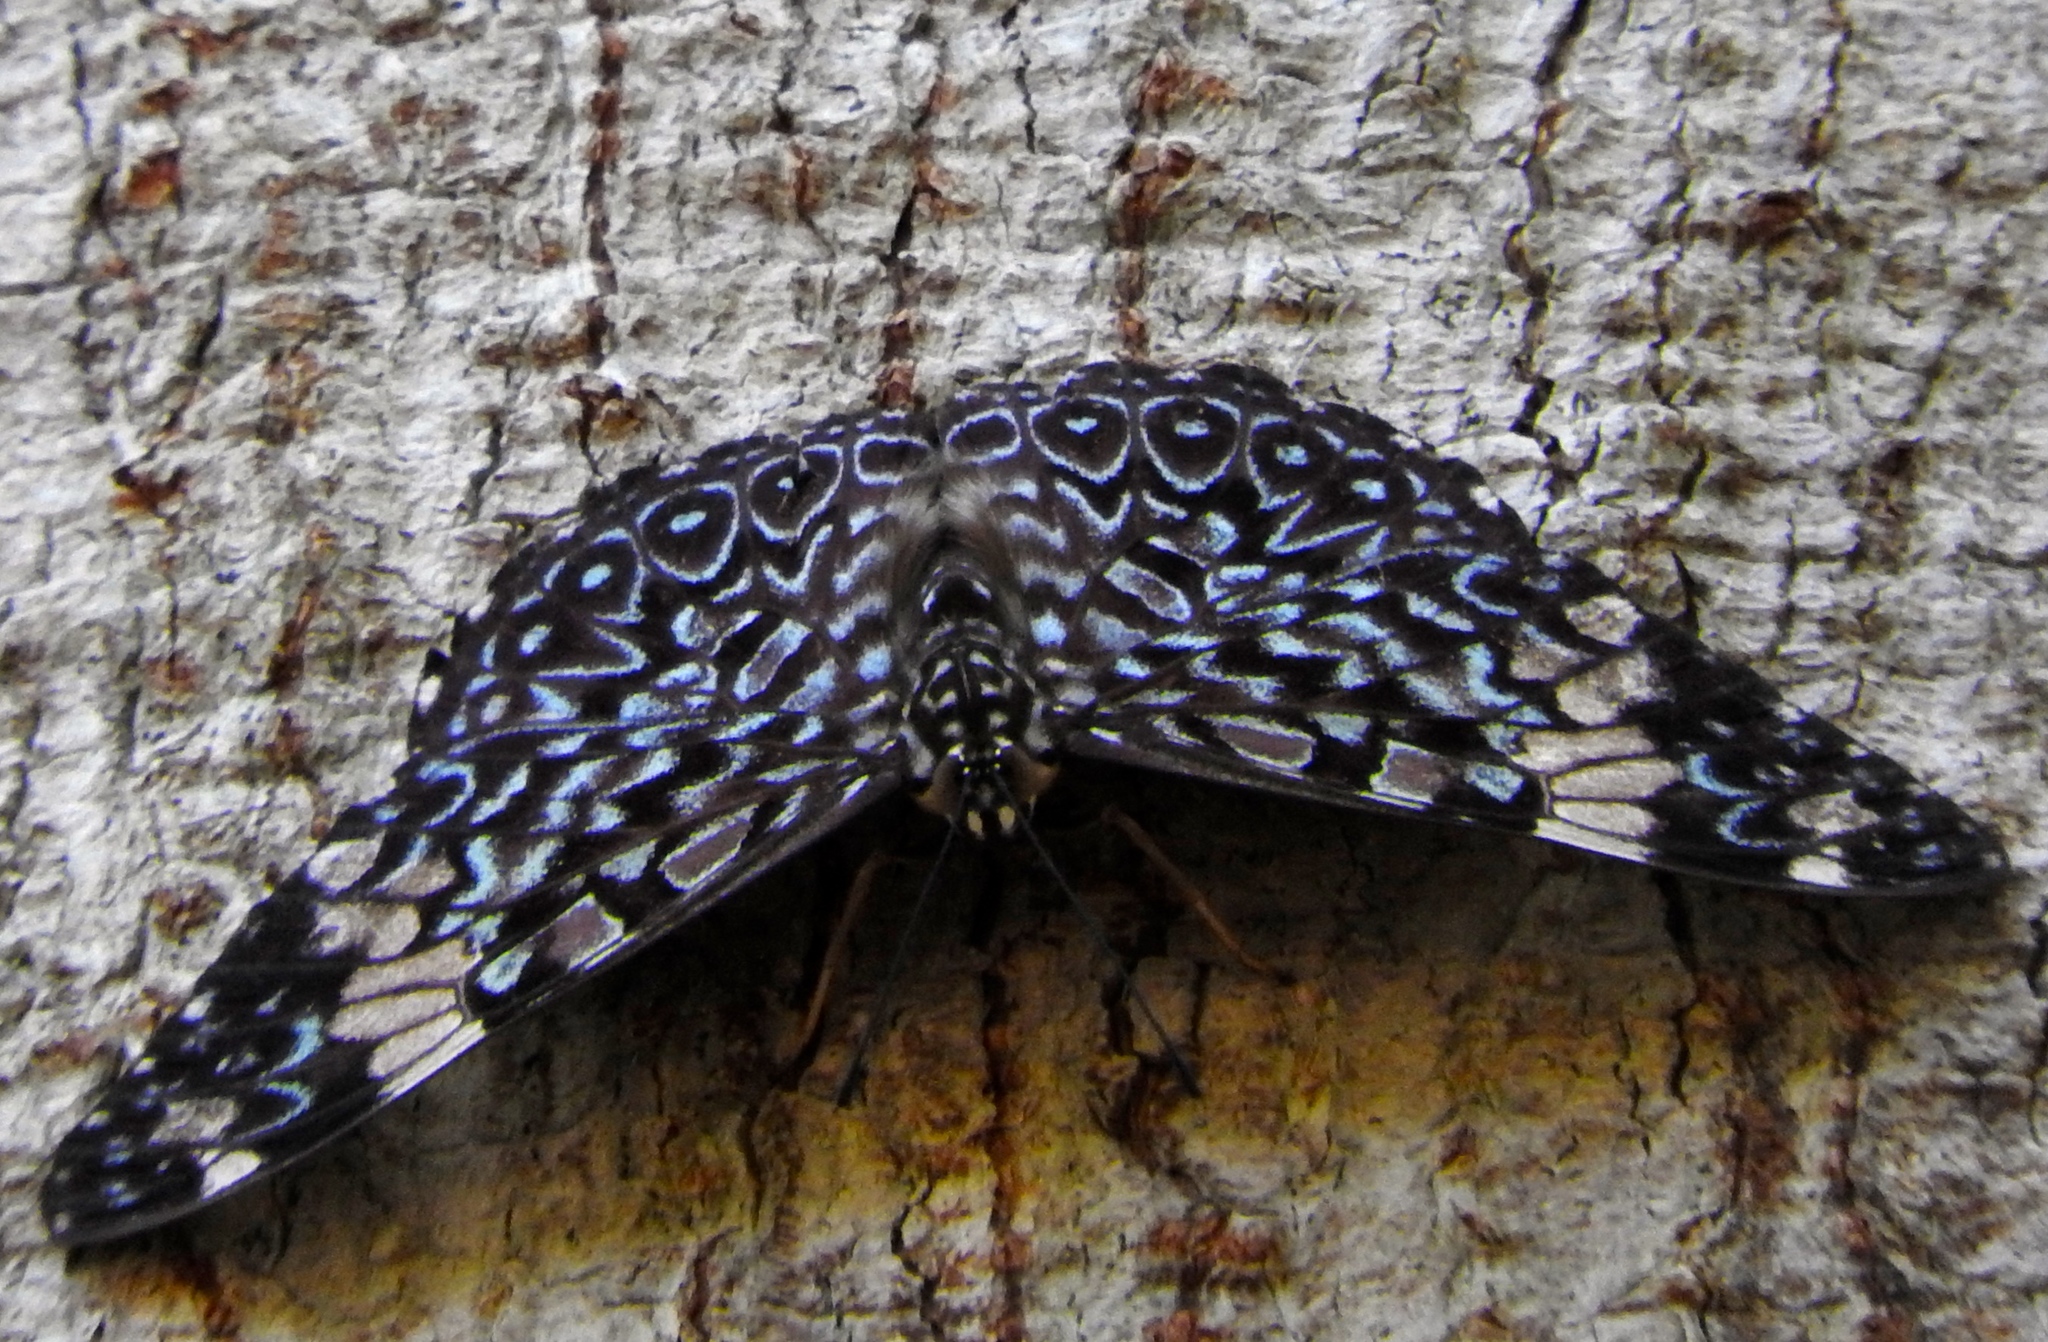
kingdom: Animalia
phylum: Arthropoda
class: Insecta
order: Lepidoptera
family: Nymphalidae
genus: Hamadryas
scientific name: Hamadryas amphinome
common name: Red cracker
